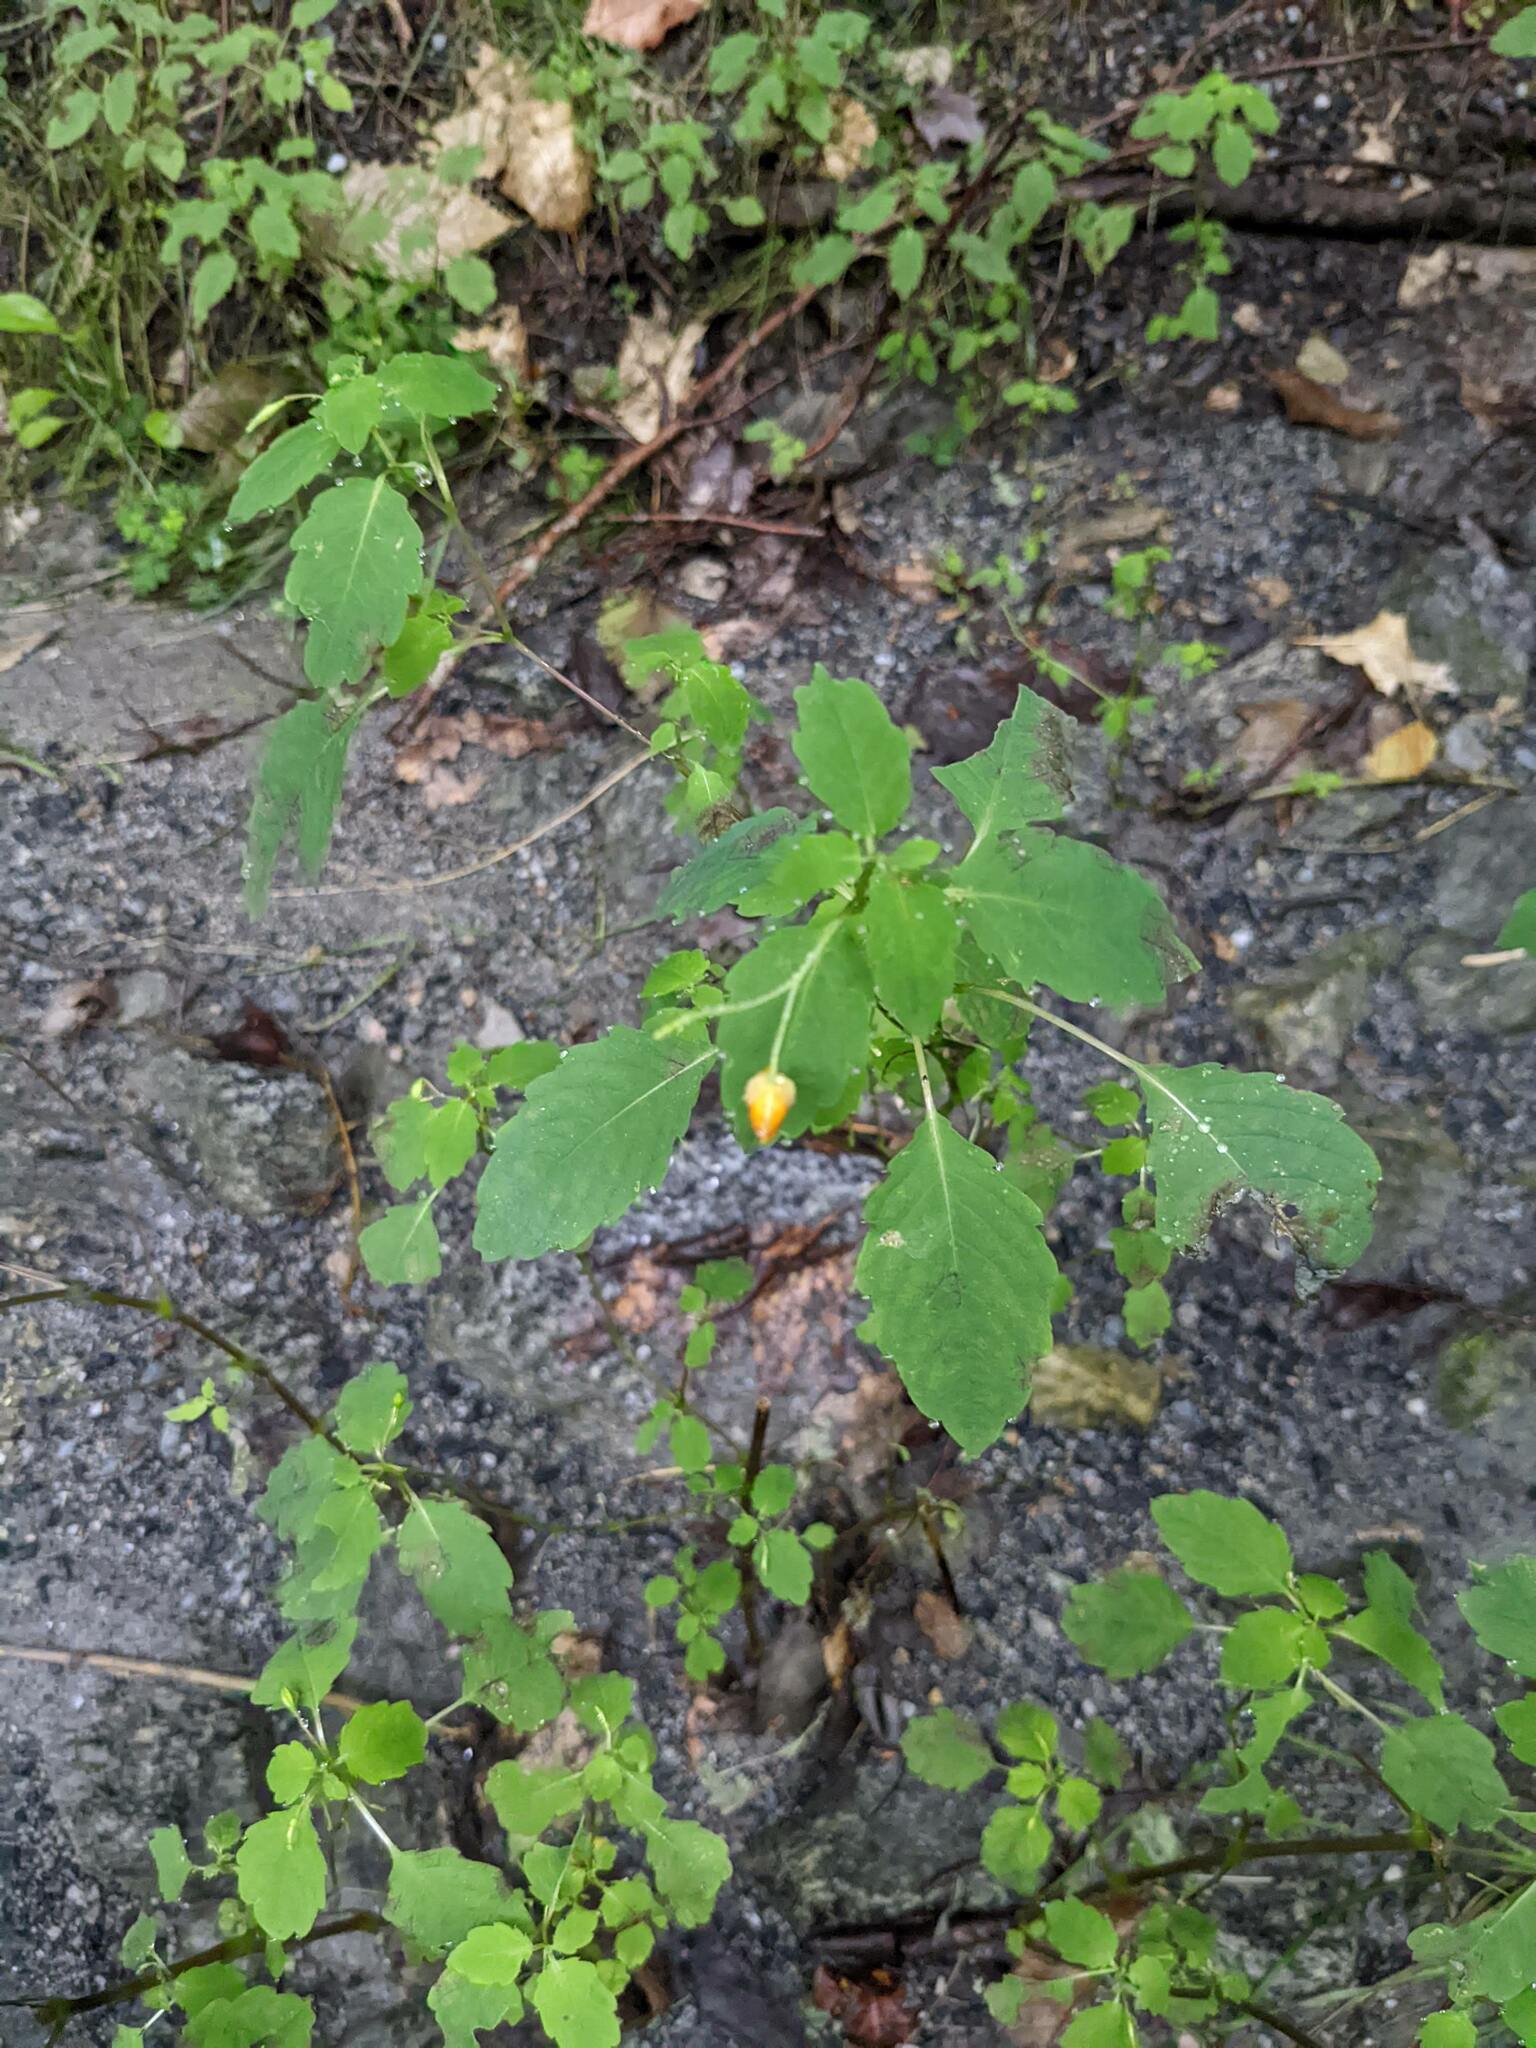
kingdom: Plantae
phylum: Tracheophyta
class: Magnoliopsida
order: Ericales
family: Balsaminaceae
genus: Impatiens
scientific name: Impatiens capensis
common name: Orange balsam
